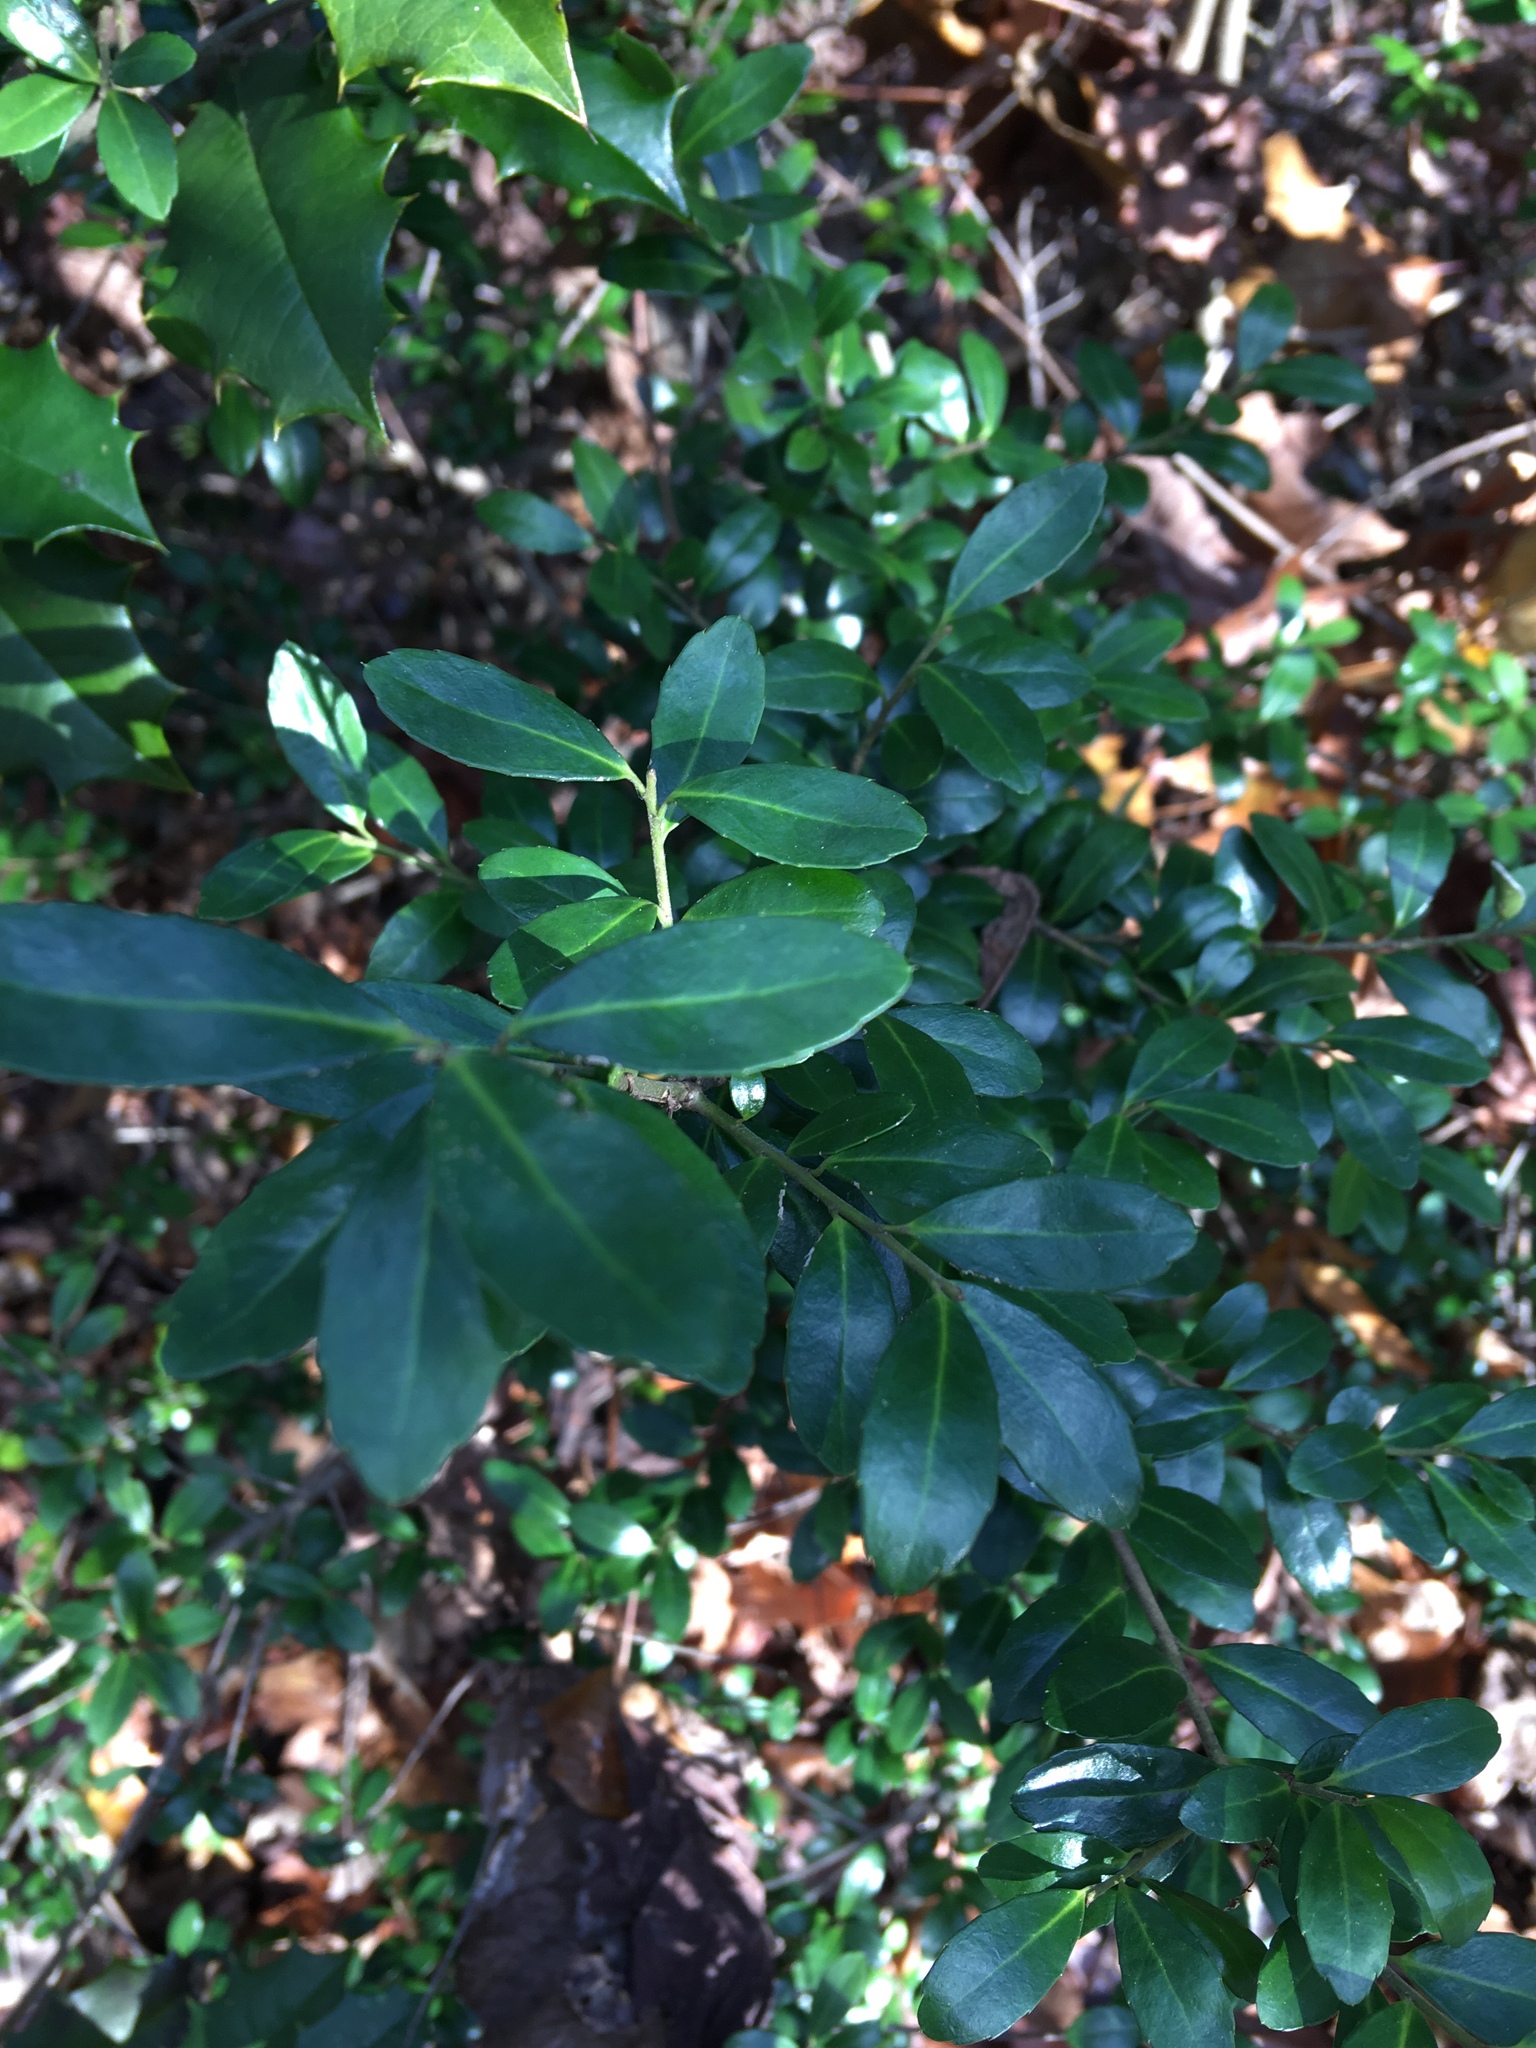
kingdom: Plantae
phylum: Tracheophyta
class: Magnoliopsida
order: Aquifoliales
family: Aquifoliaceae
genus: Ilex
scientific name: Ilex crenata
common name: Japanese holly
